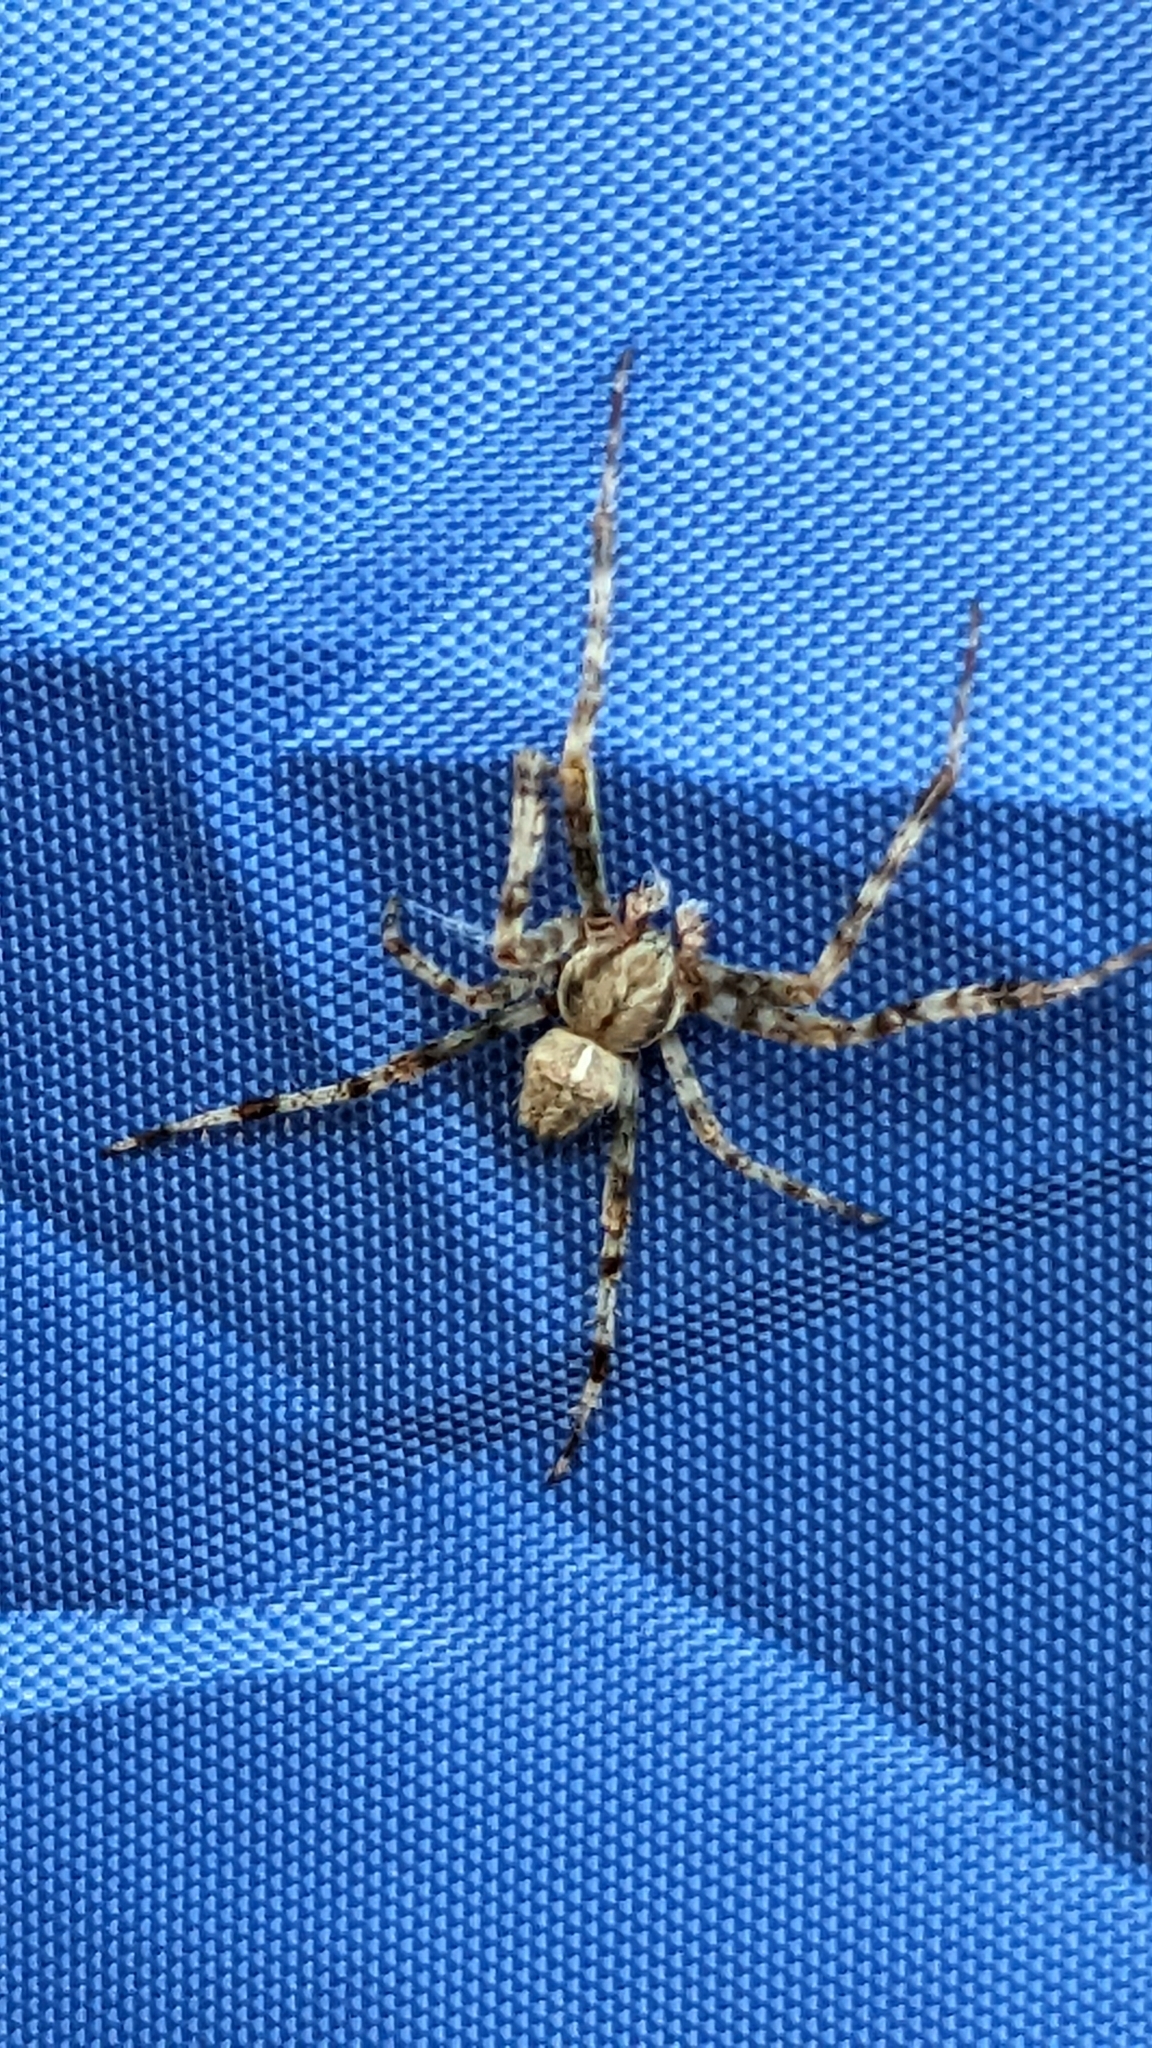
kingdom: Animalia
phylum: Arthropoda
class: Arachnida
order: Araneae
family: Araneidae
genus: Araneus
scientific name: Araneus diadematus
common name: Cross orbweaver
